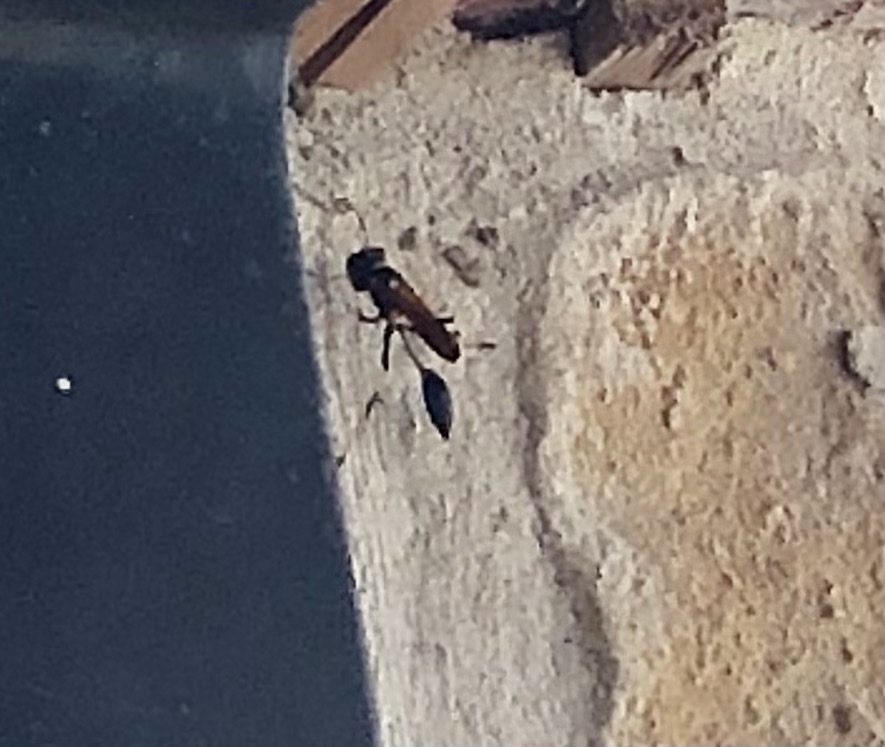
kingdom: Animalia
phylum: Arthropoda
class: Insecta
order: Hymenoptera
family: Sphecidae
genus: Sceliphron
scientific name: Sceliphron caementarium
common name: Mud dauber
